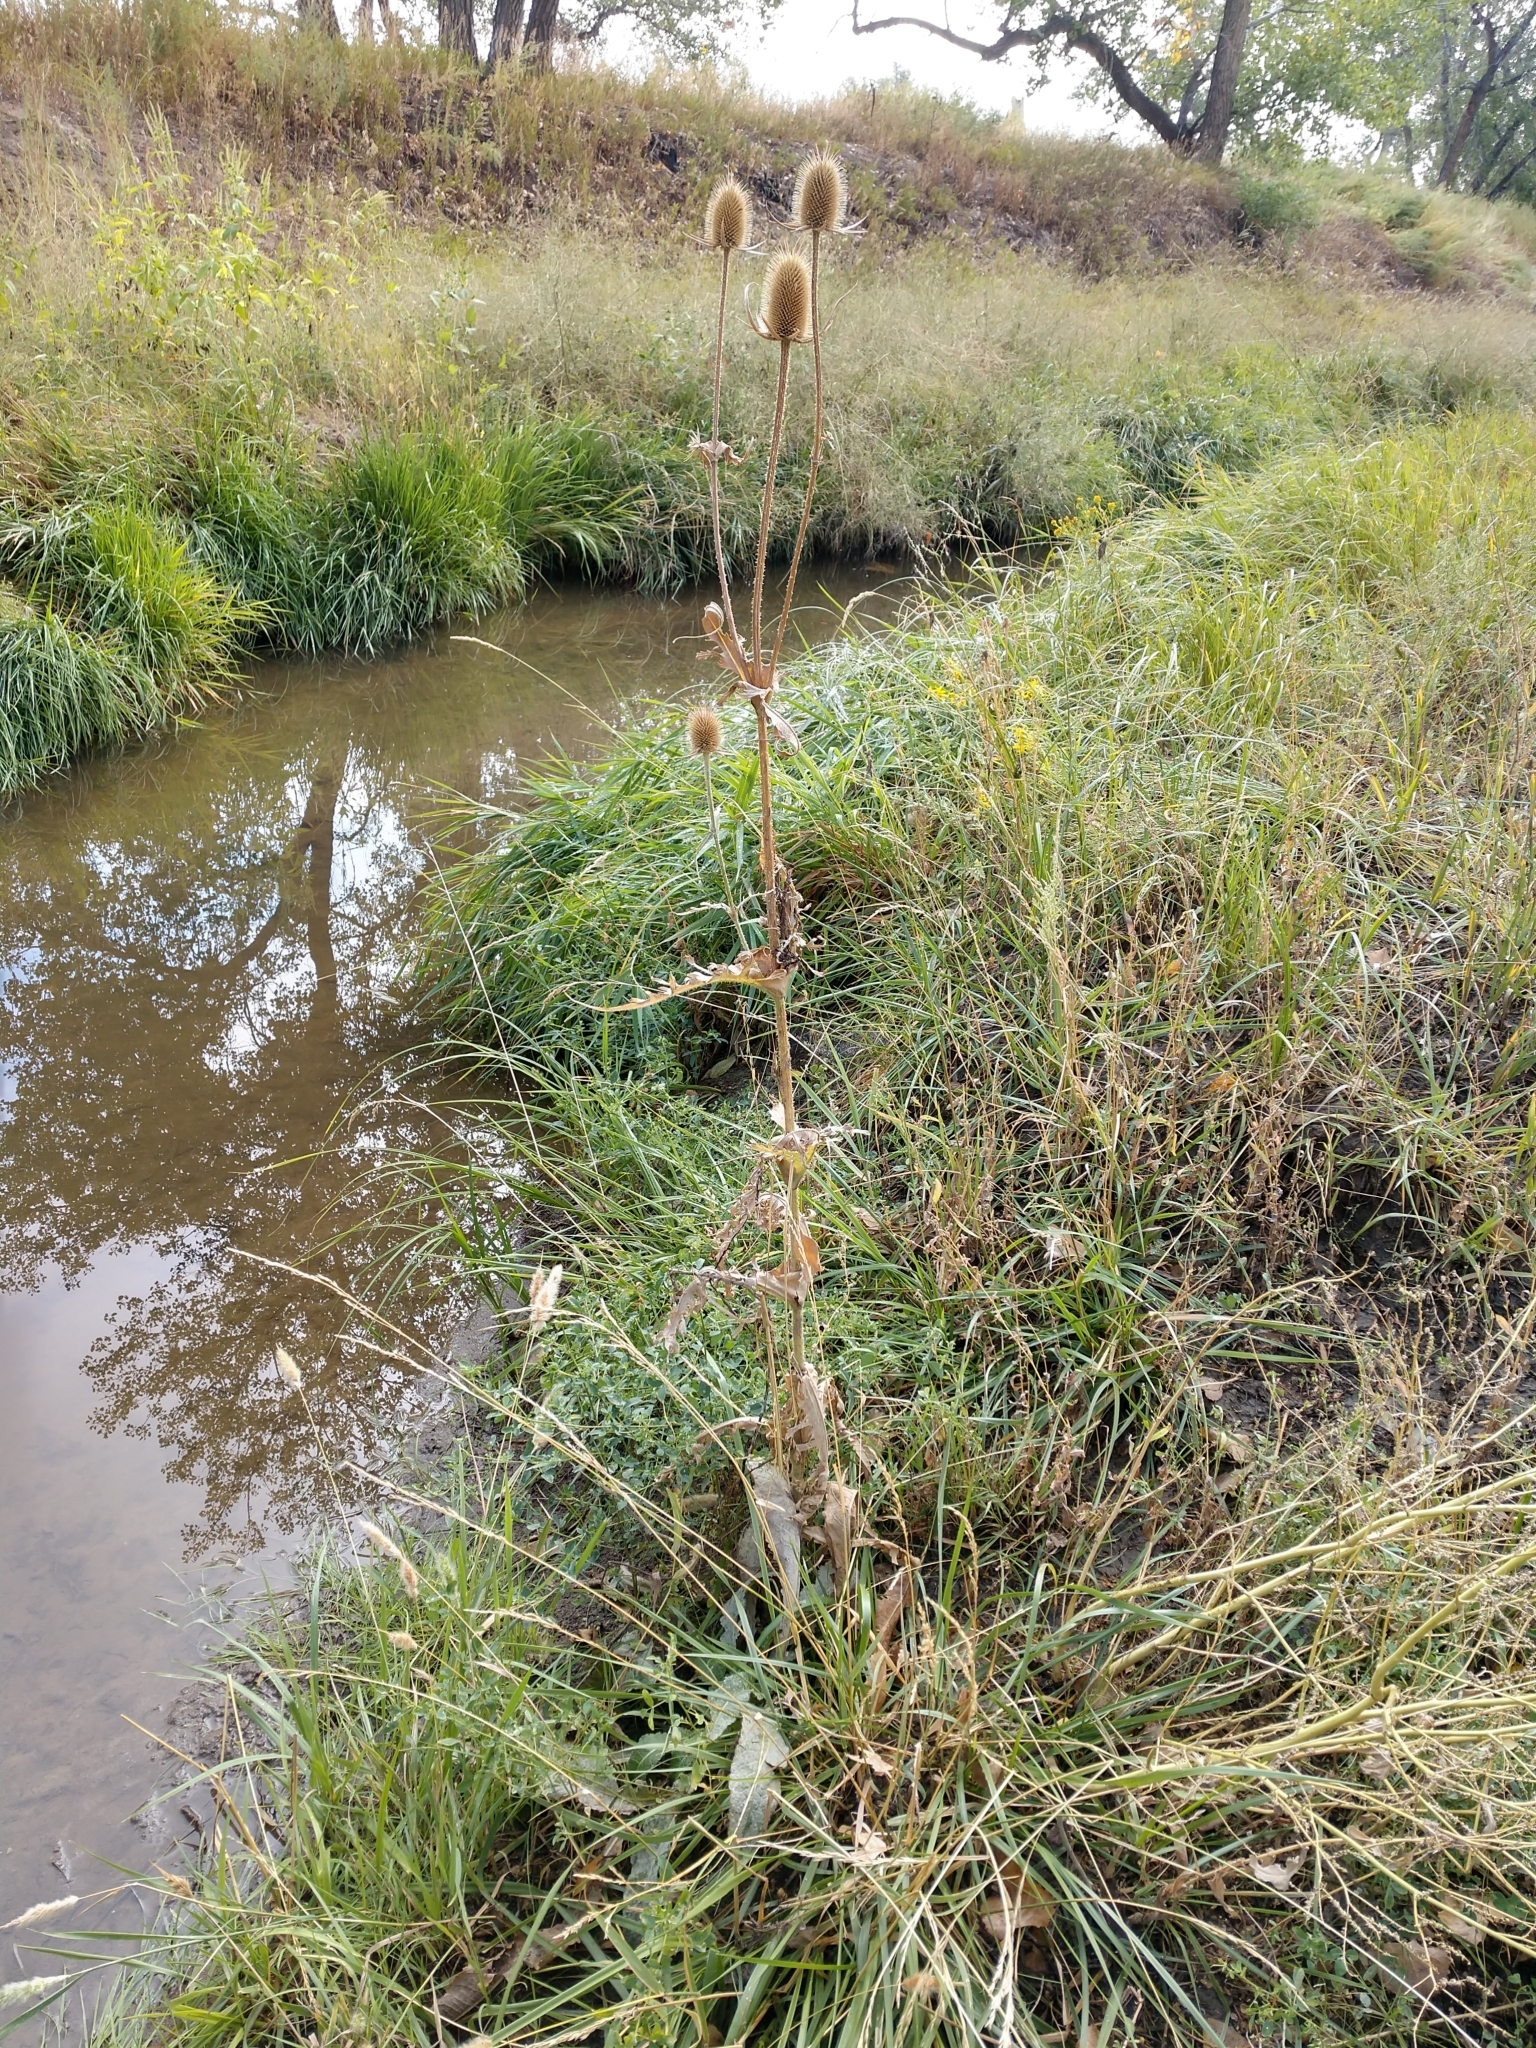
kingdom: Plantae
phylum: Tracheophyta
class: Magnoliopsida
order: Dipsacales
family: Caprifoliaceae
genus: Dipsacus
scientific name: Dipsacus laciniatus
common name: Cut-leaved teasel
